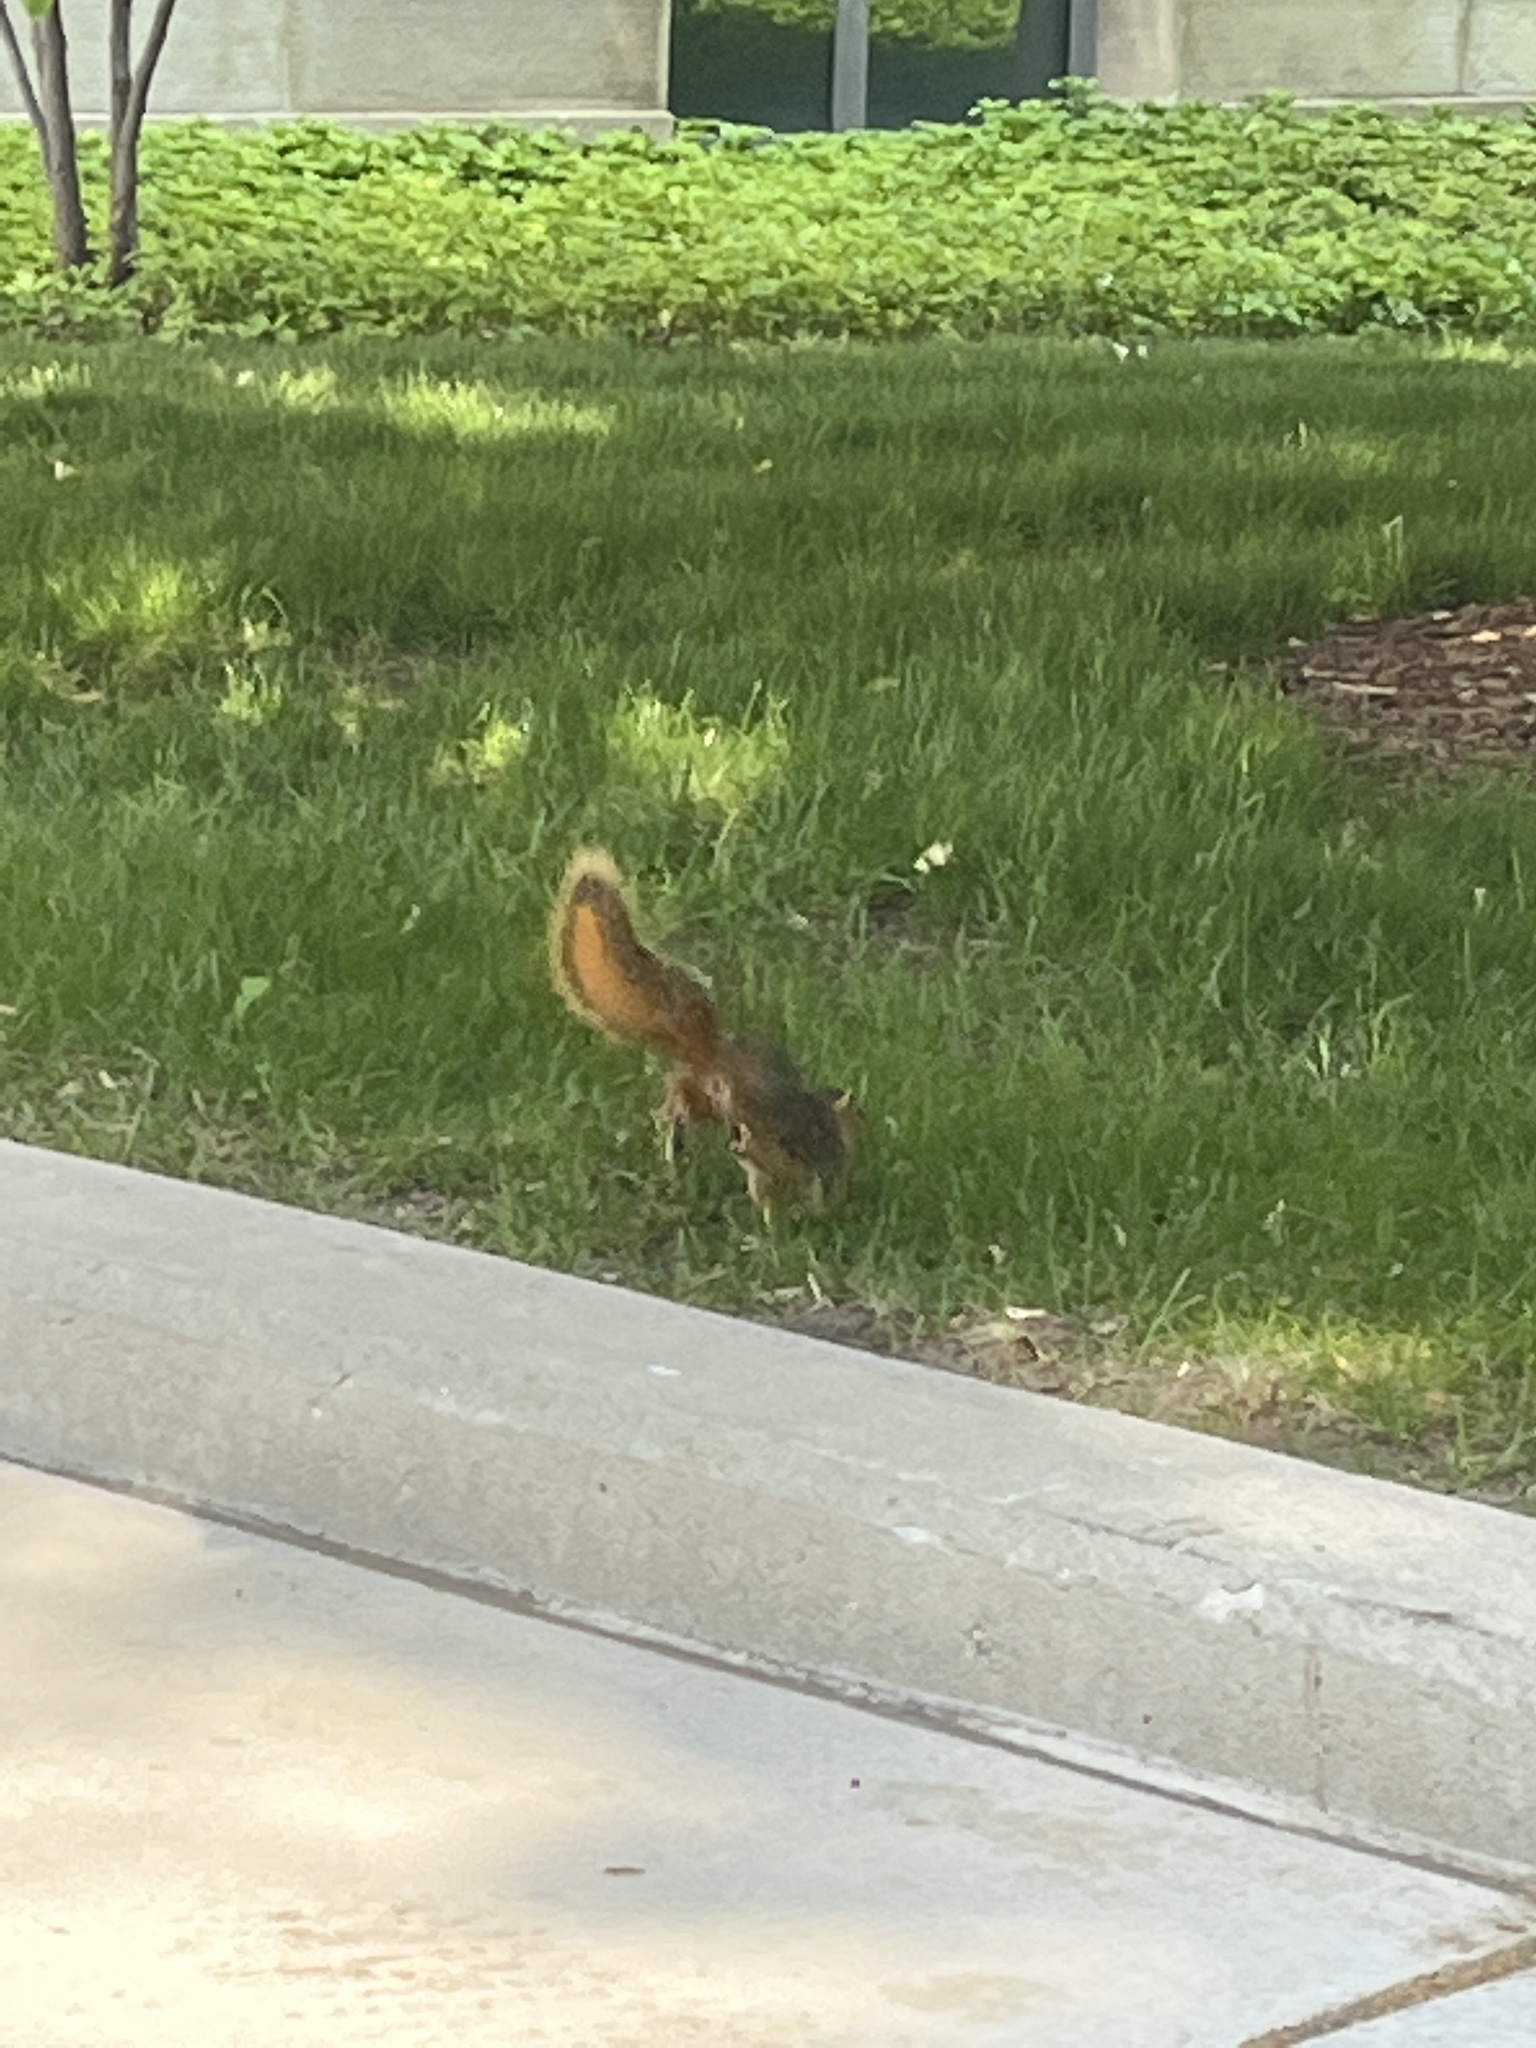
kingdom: Animalia
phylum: Chordata
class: Mammalia
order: Rodentia
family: Sciuridae
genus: Sciurus
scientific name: Sciurus niger
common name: Fox squirrel
